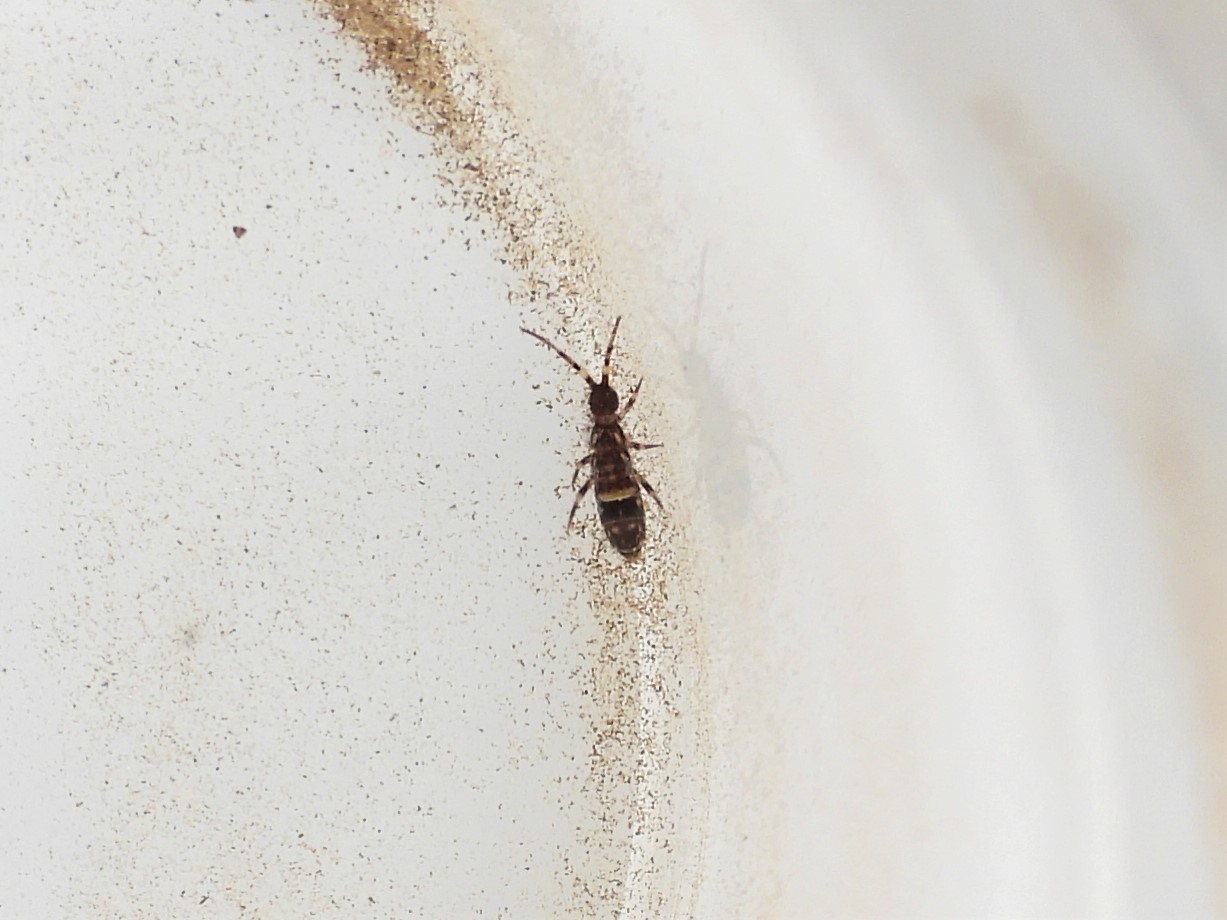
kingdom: Animalia
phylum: Arthropoda
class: Collembola
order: Entomobryomorpha
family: Orchesellidae
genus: Orchesella
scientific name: Orchesella cincta
